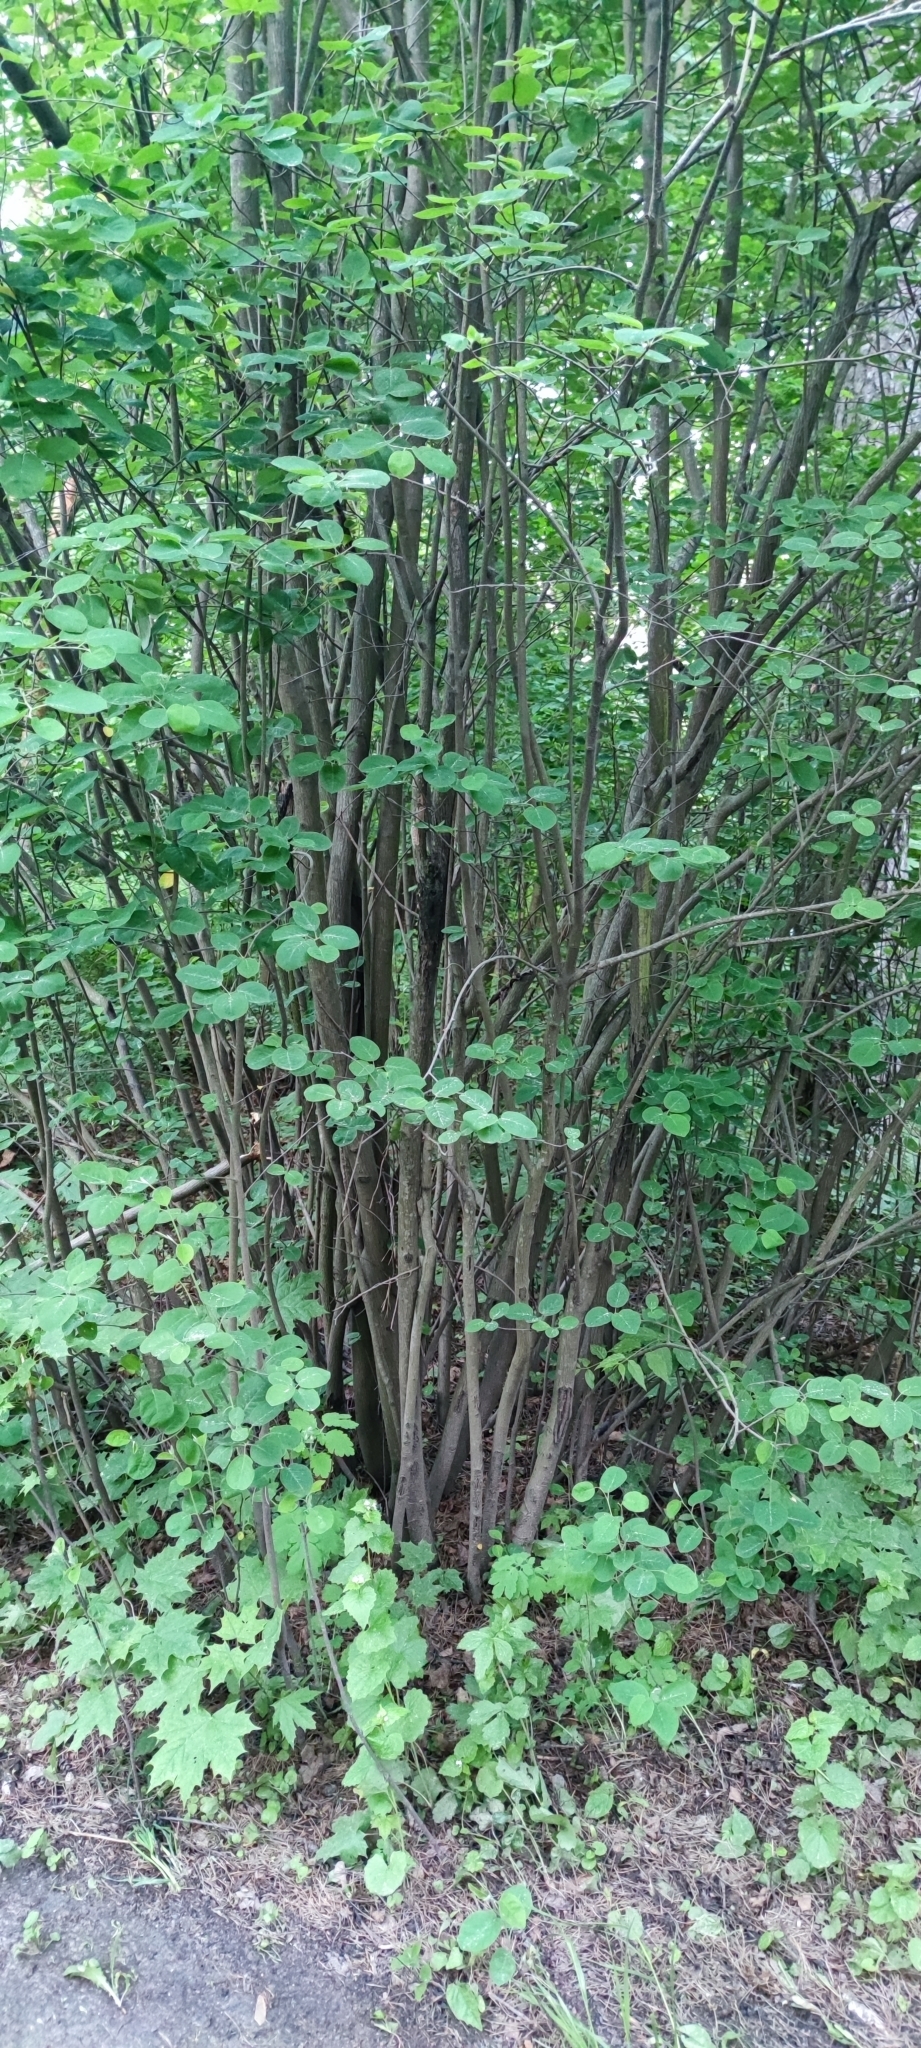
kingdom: Plantae
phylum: Tracheophyta
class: Magnoliopsida
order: Rosales
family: Rosaceae
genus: Amelanchier
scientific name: Amelanchier
